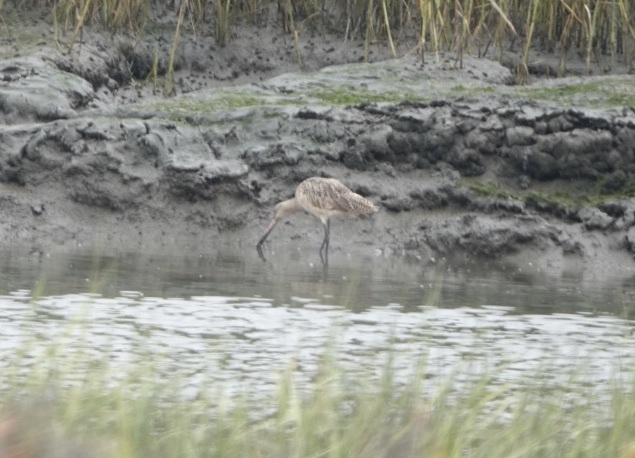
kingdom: Animalia
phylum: Chordata
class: Aves
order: Charadriiformes
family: Scolopacidae
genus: Limosa
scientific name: Limosa fedoa
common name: Marbled godwit
